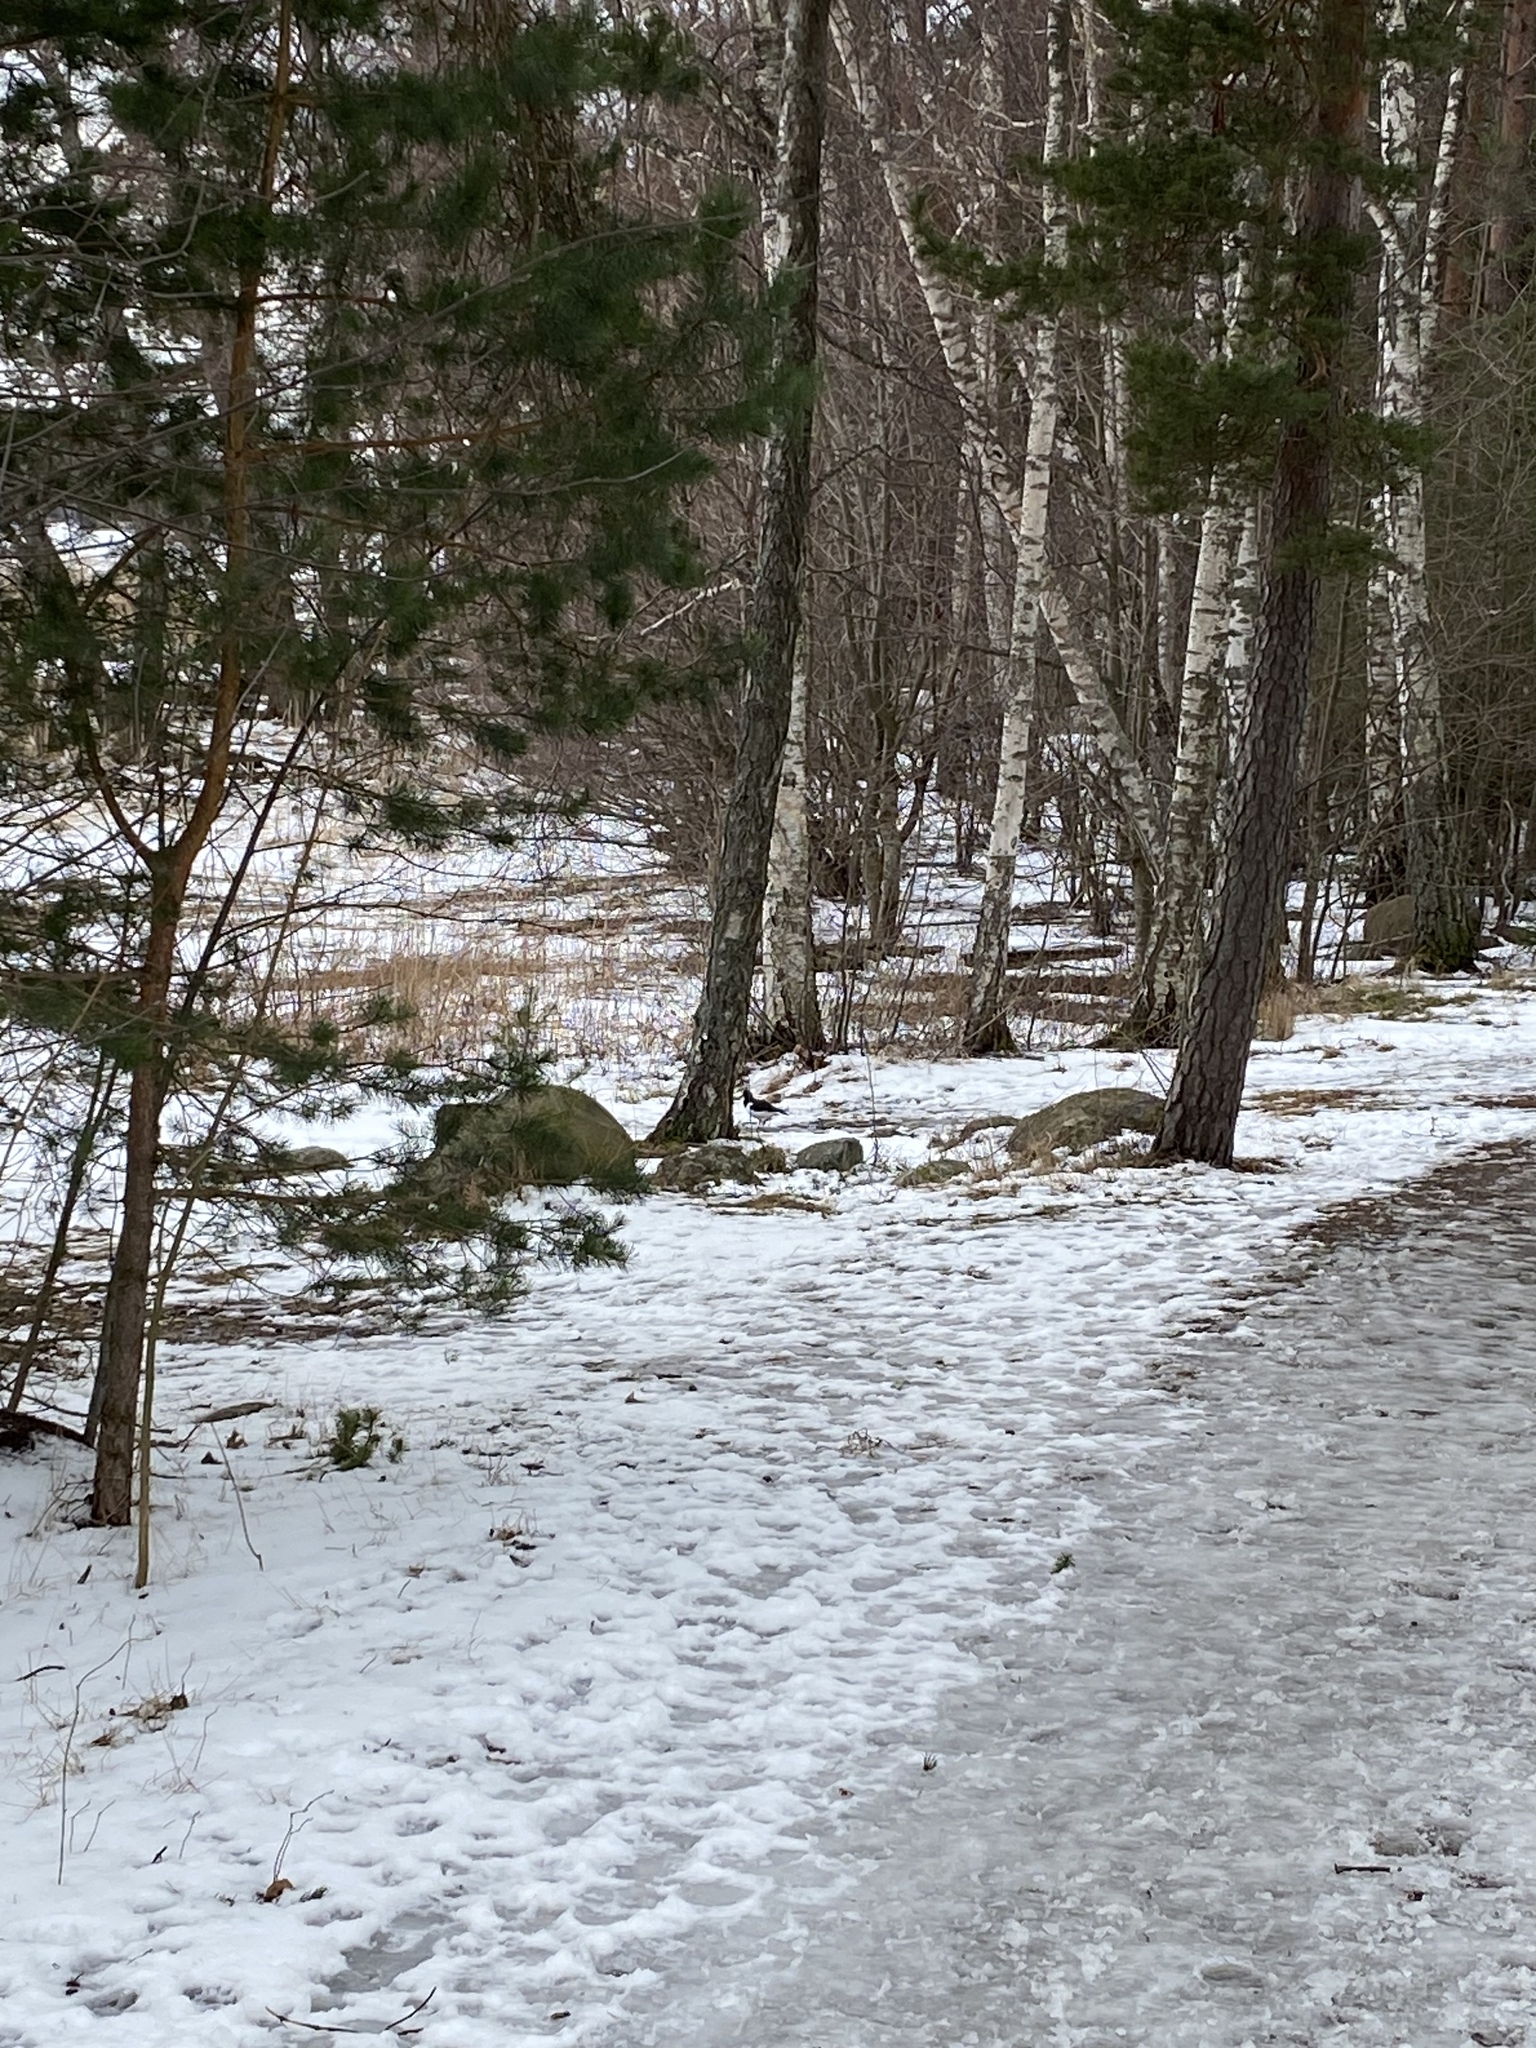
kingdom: Animalia
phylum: Chordata
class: Aves
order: Charadriiformes
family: Haematopodidae
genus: Haematopus
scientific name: Haematopus ostralegus
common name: Eurasian oystercatcher
